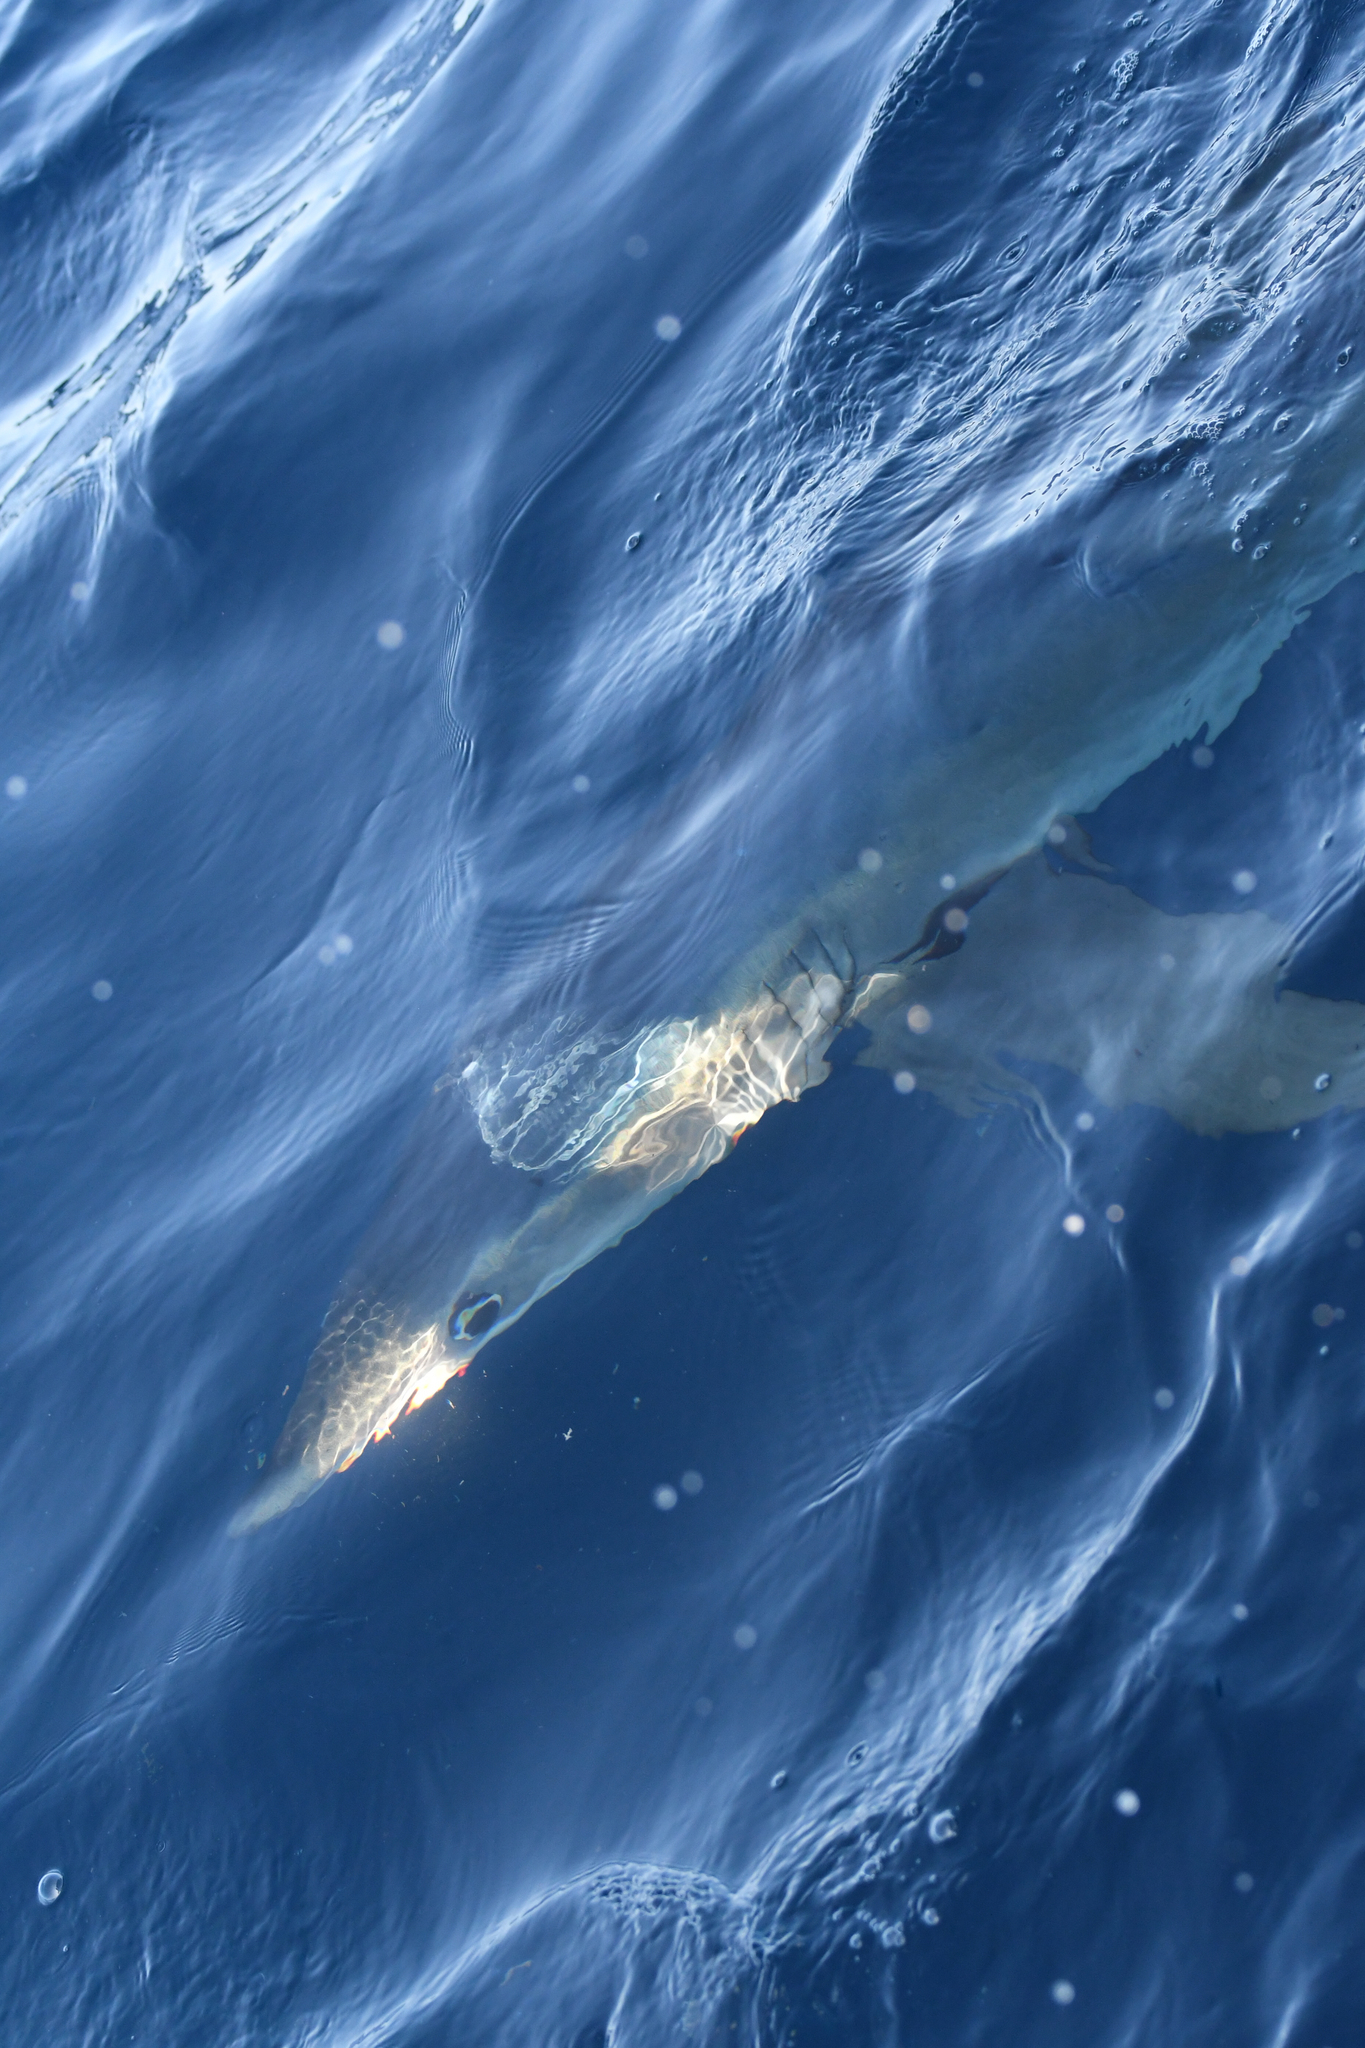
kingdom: Animalia
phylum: Chordata
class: Elasmobranchii
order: Carcharhiniformes
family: Carcharhinidae
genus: Prionace
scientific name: Prionace glauca
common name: Blue shark
